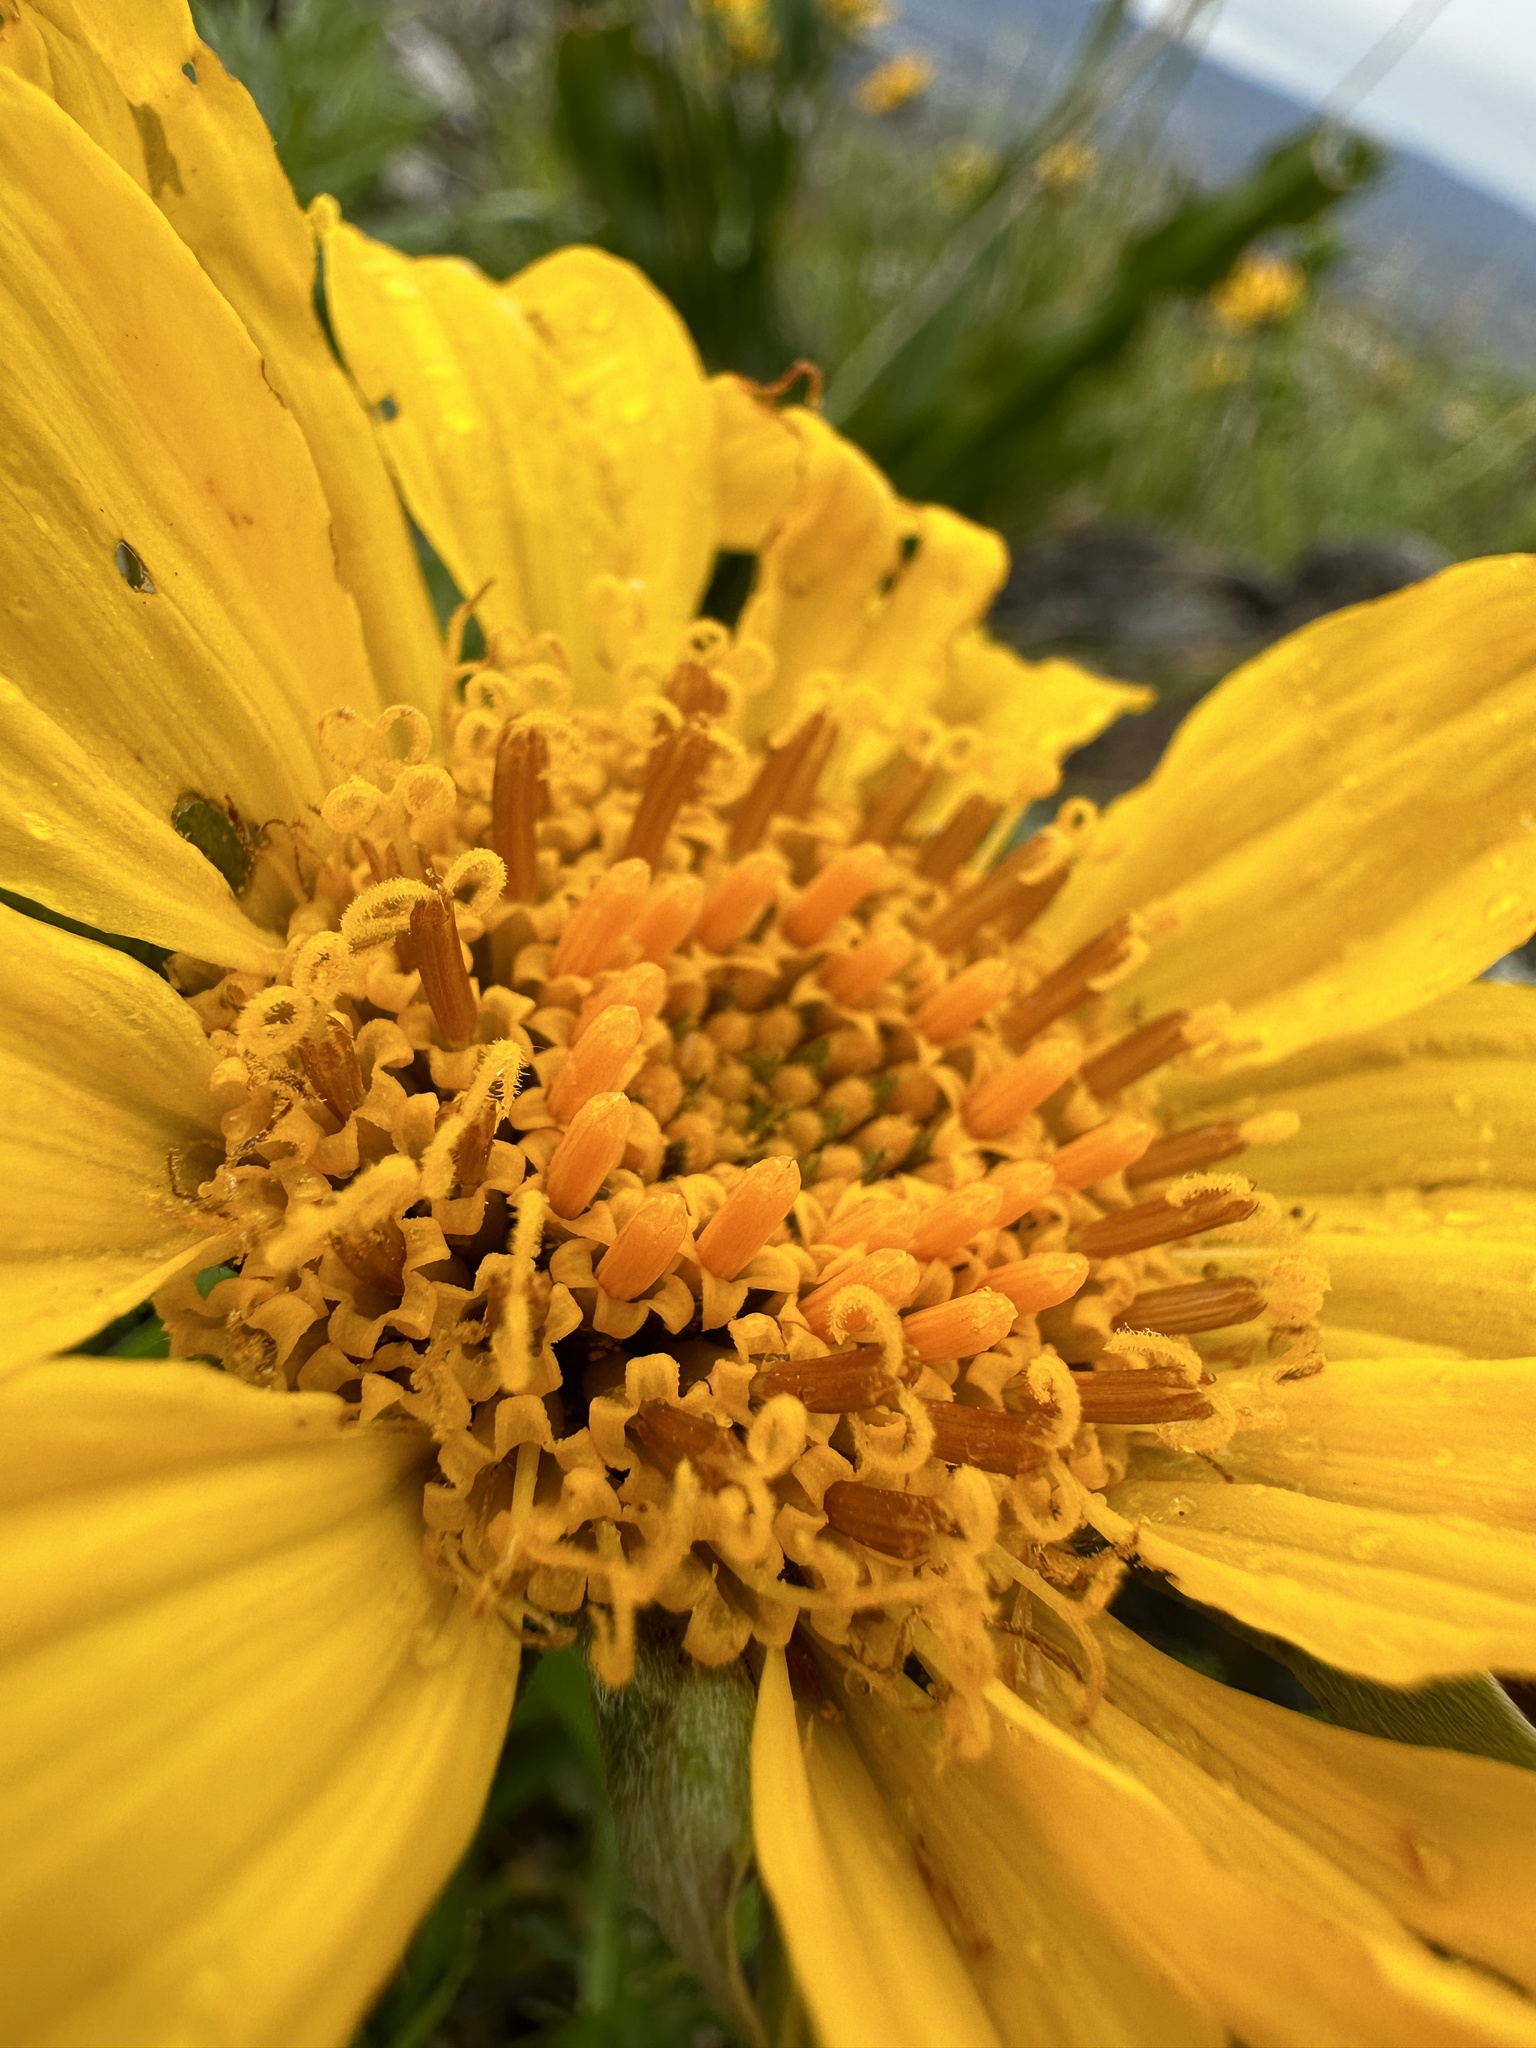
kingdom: Plantae
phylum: Tracheophyta
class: Magnoliopsida
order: Asterales
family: Asteraceae
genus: Balsamorhiza
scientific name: Balsamorhiza macrolepis
